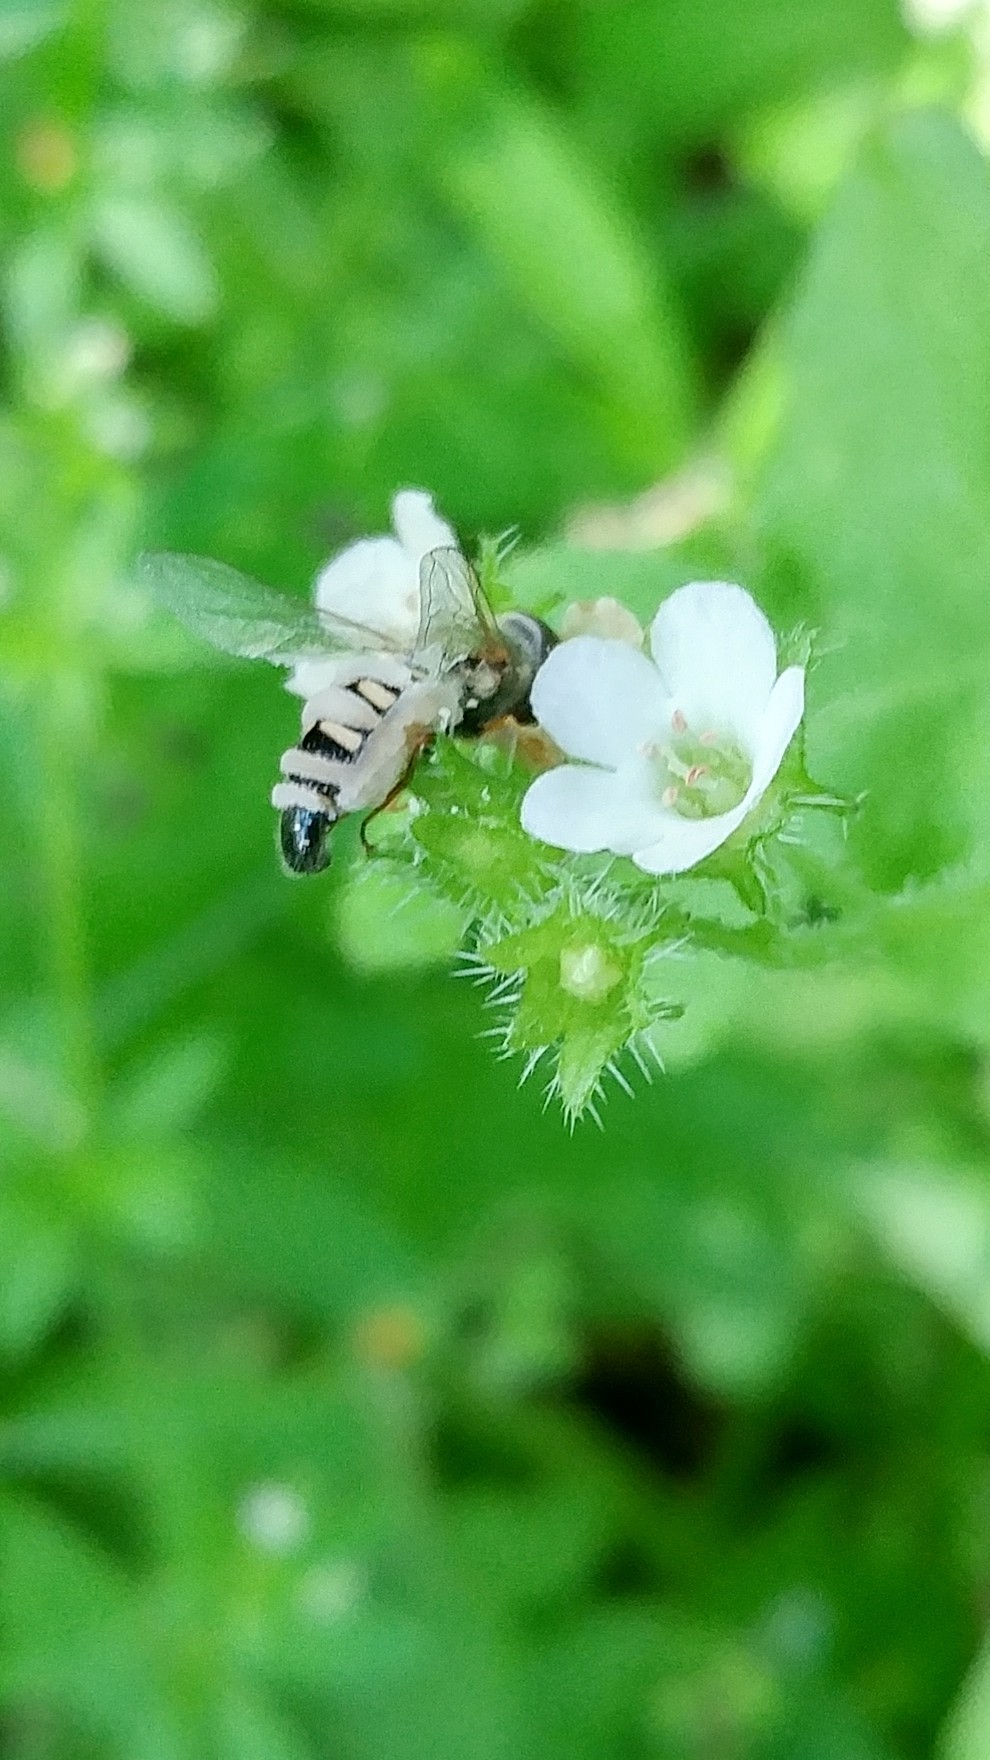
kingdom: Animalia
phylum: Arthropoda
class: Insecta
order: Diptera
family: Syrphidae
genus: Eupeodes
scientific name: Eupeodes volucris
